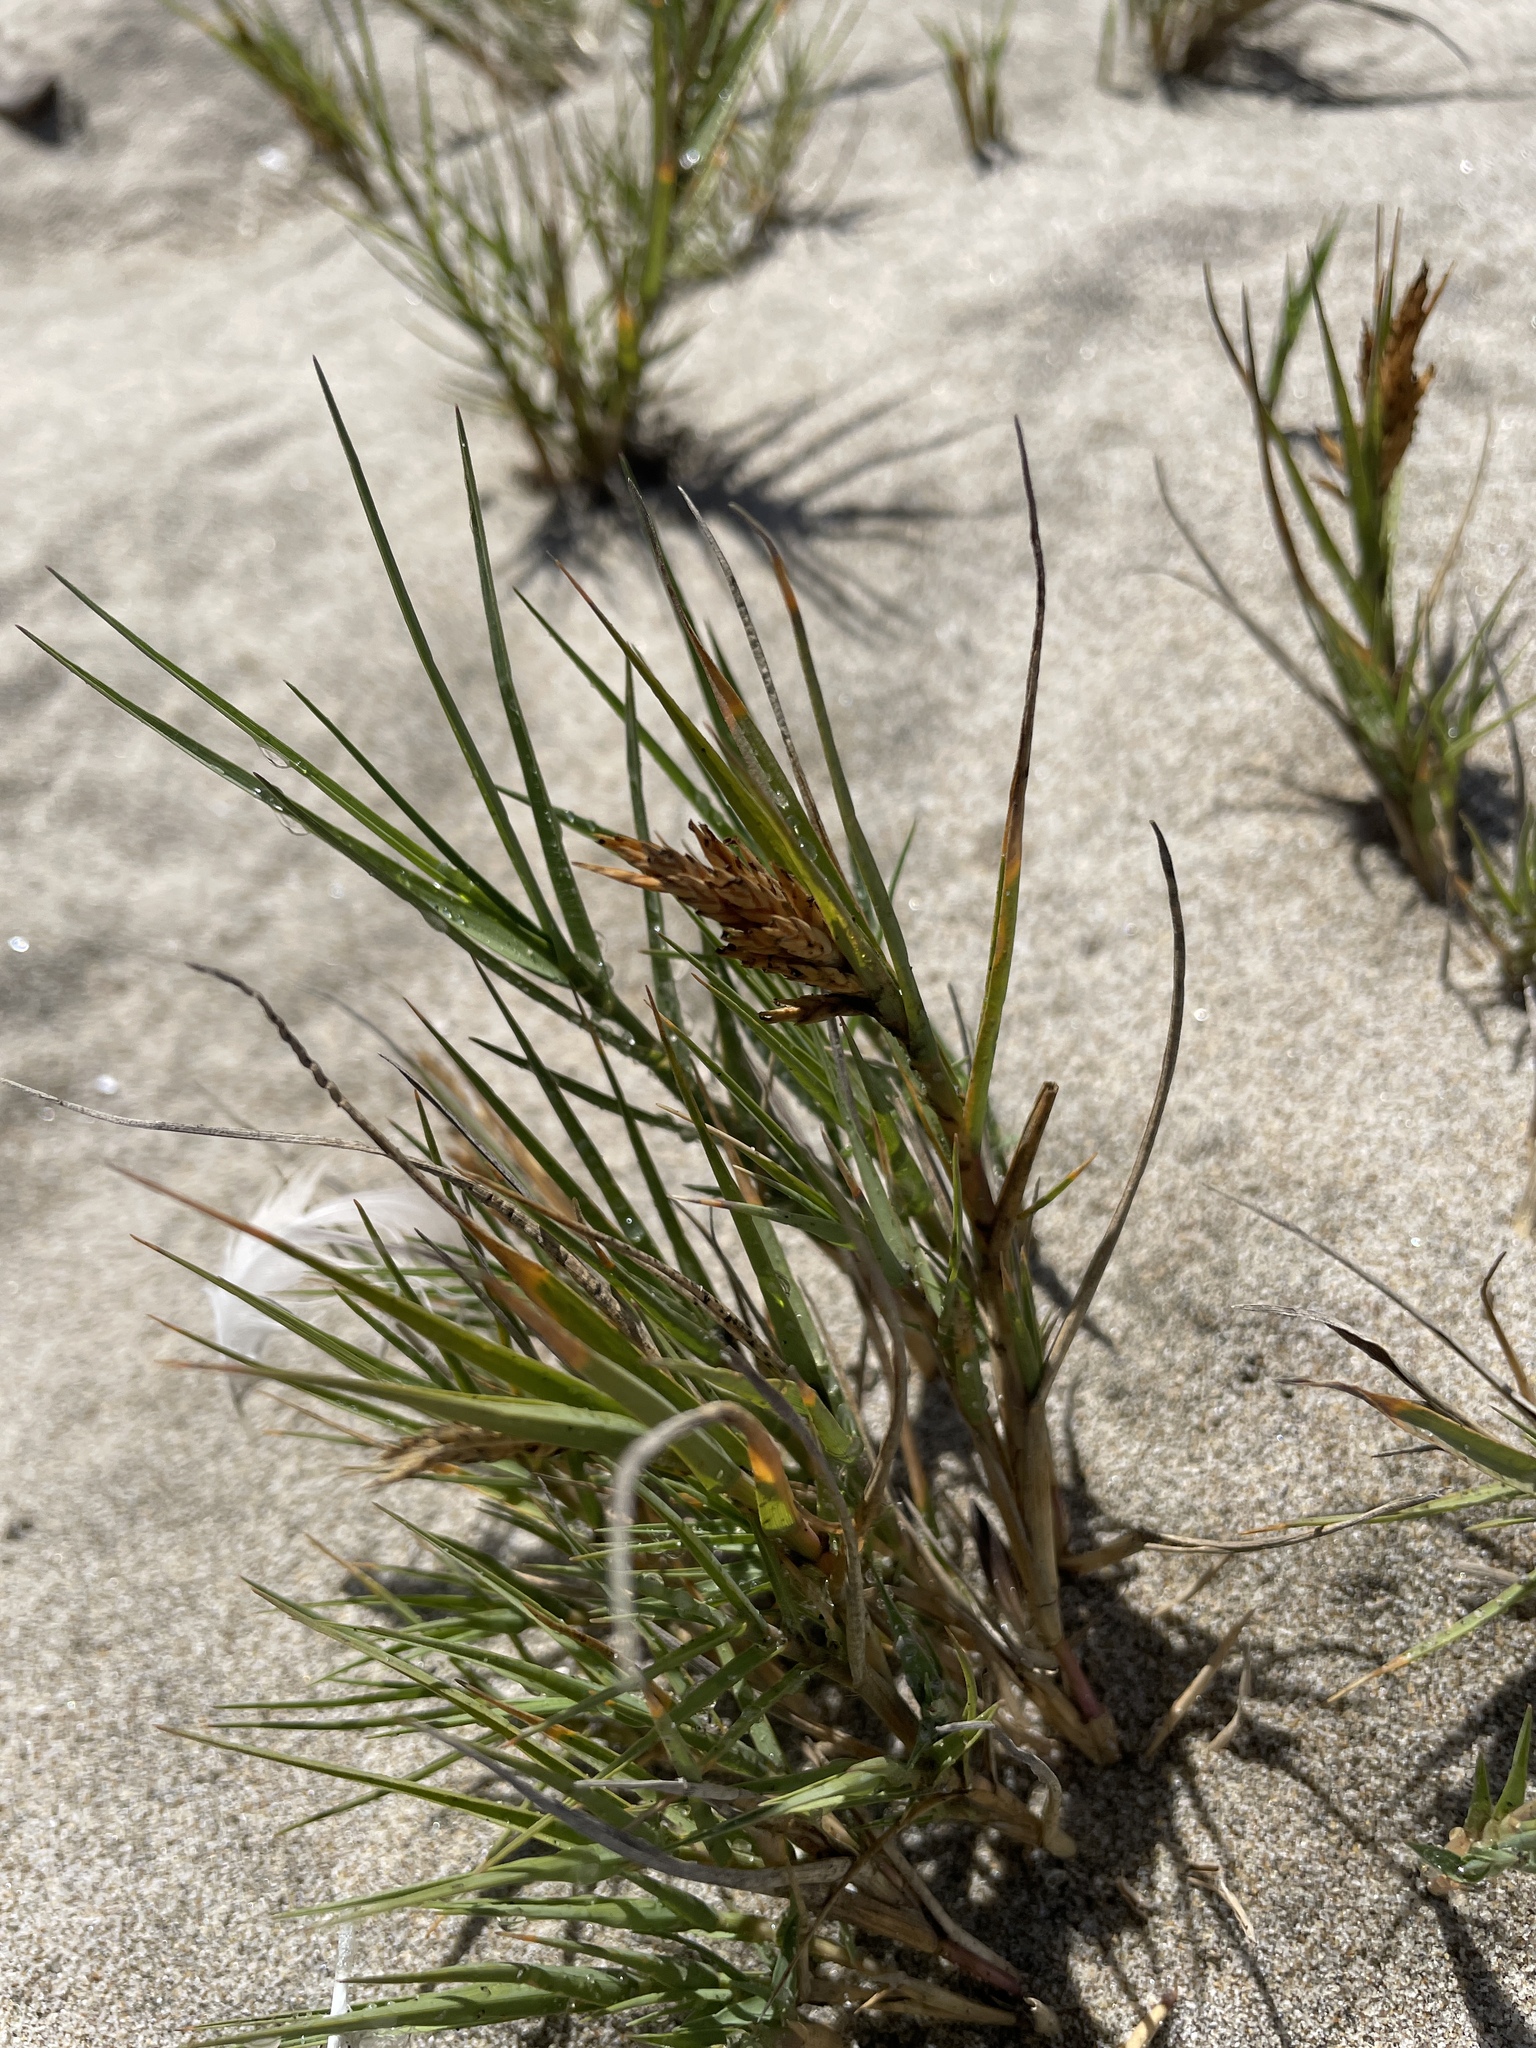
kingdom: Plantae
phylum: Tracheophyta
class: Liliopsida
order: Poales
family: Poaceae
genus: Distichlis
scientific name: Distichlis spicata
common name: Saltgrass
